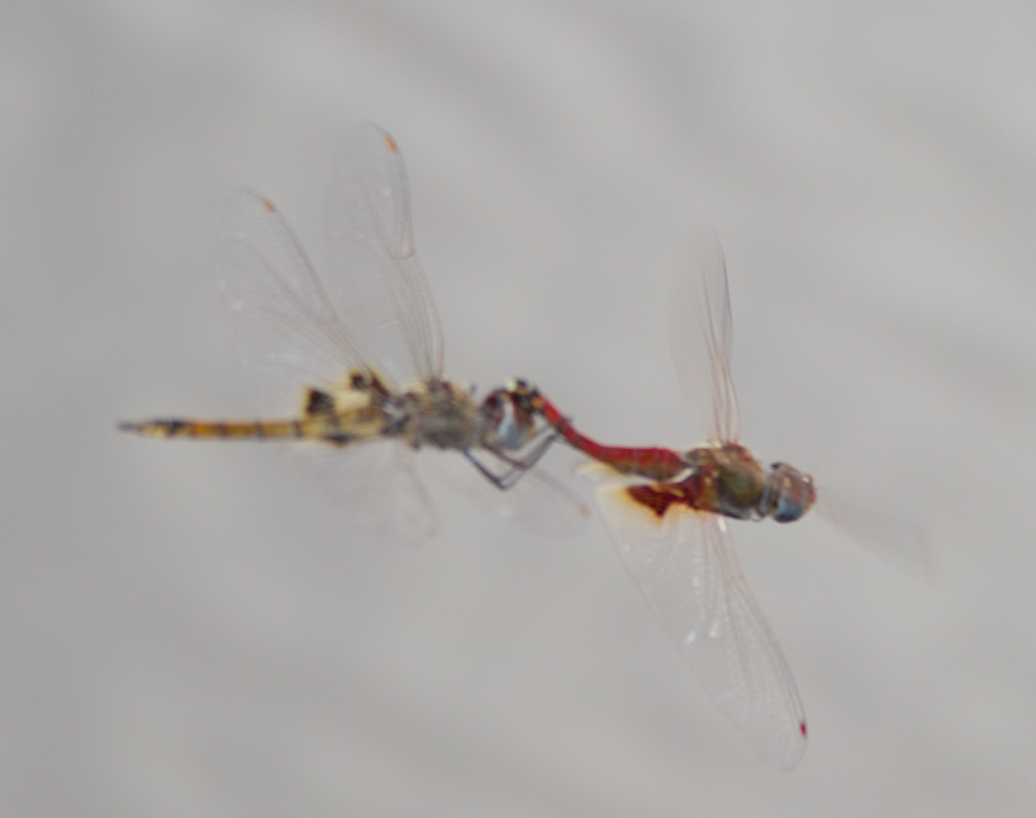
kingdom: Animalia
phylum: Arthropoda
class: Insecta
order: Odonata
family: Libellulidae
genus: Tramea
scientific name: Tramea basilaris
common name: Keyhole glider
